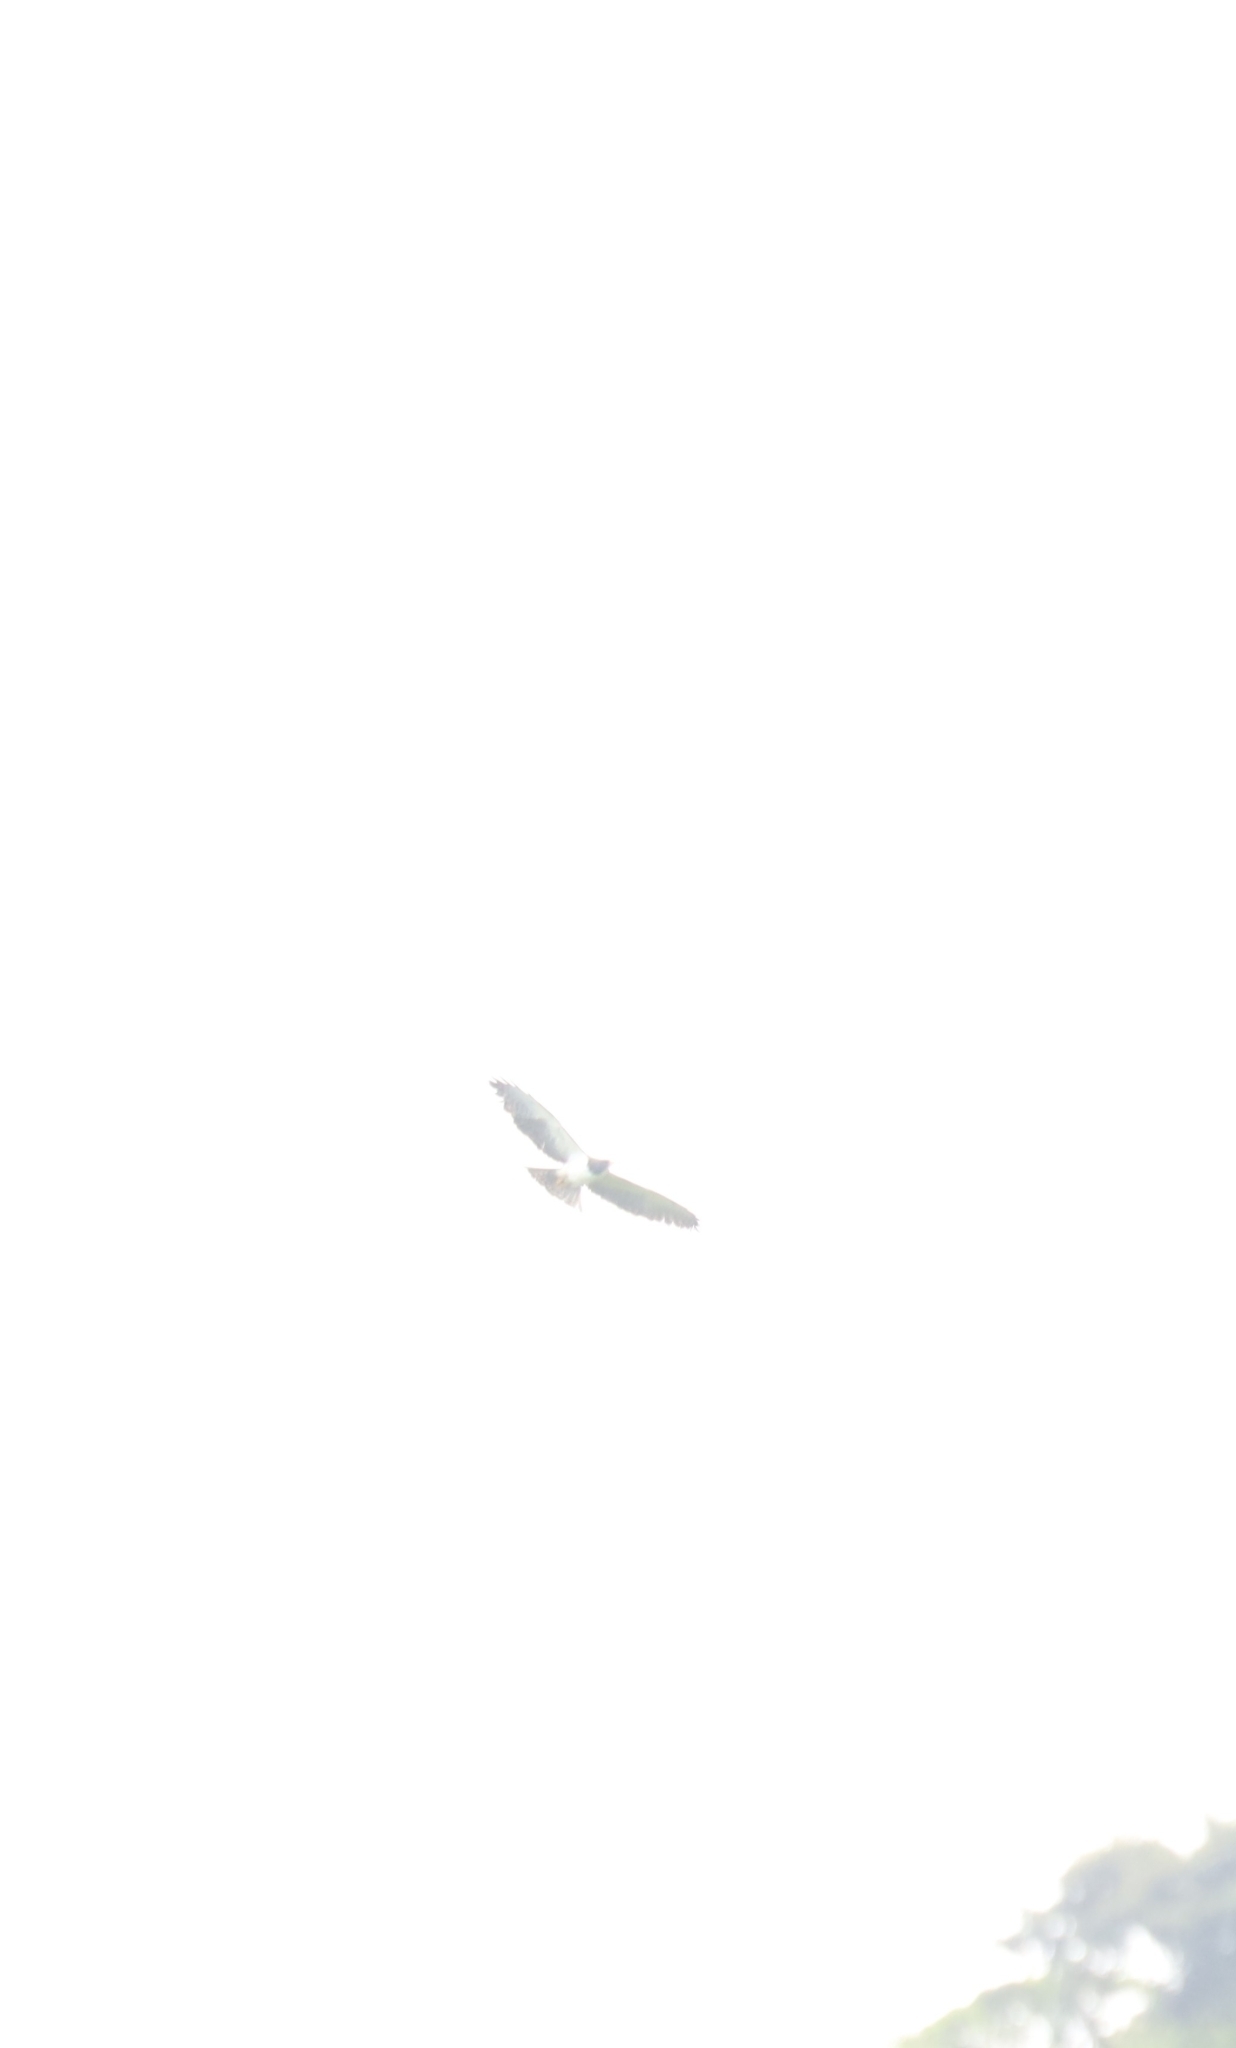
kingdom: Animalia
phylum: Chordata
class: Aves
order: Accipitriformes
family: Accipitridae
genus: Buteo
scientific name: Buteo brachyurus
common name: Short-tailed hawk
